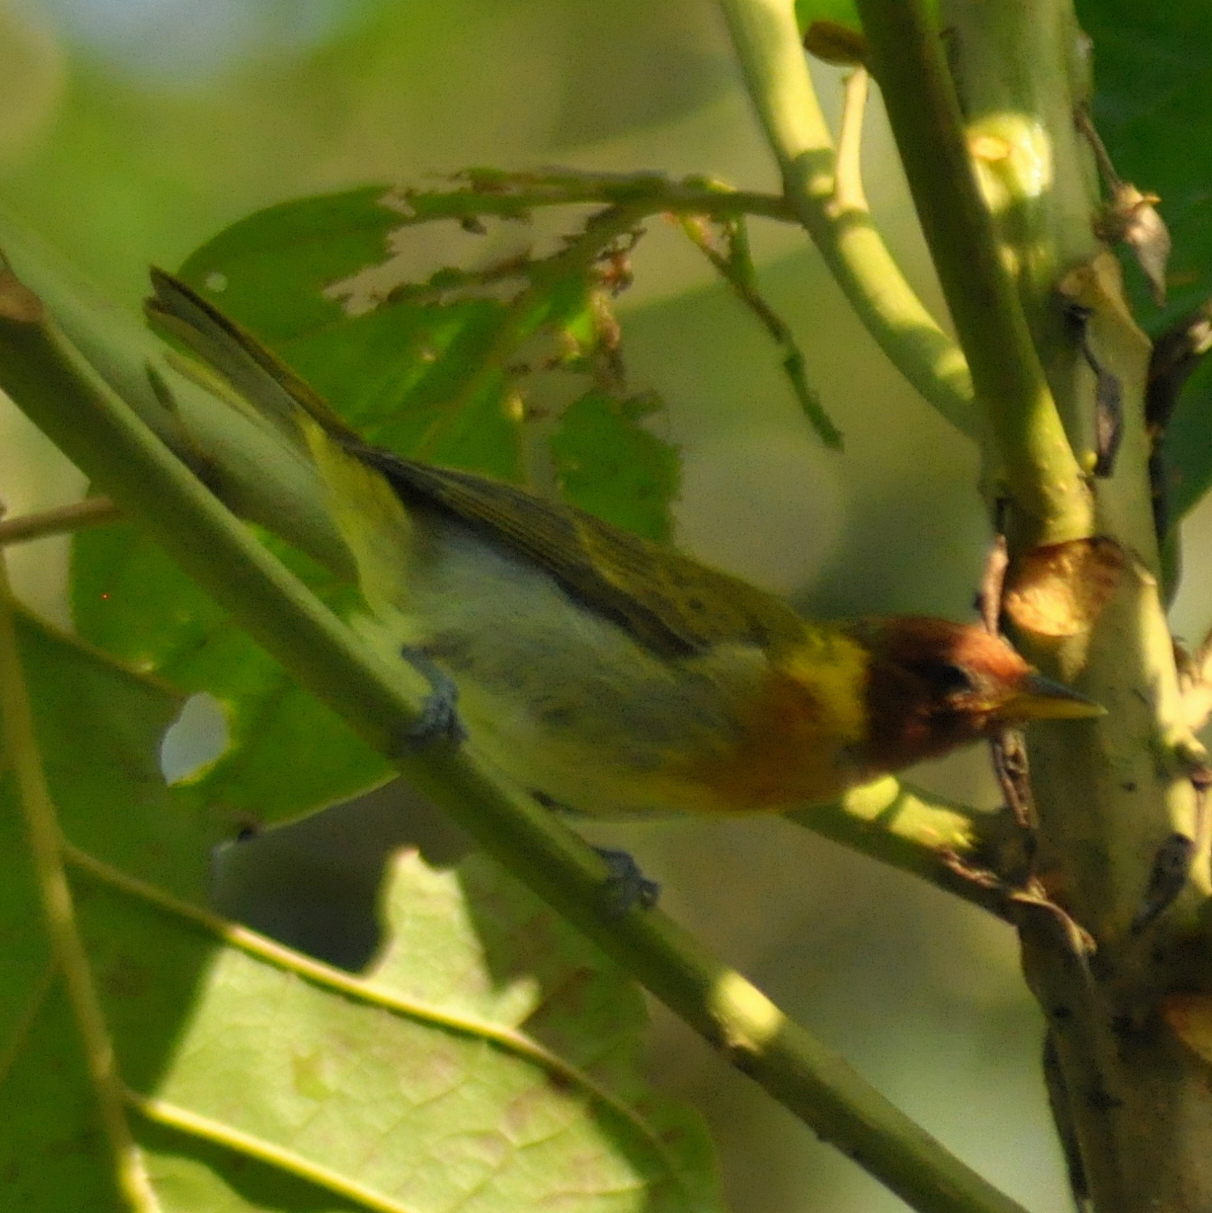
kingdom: Animalia
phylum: Chordata
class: Aves
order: Passeriformes
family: Thraupidae
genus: Hemithraupis
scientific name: Hemithraupis ruficapilla
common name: Rufous-headed tanager
